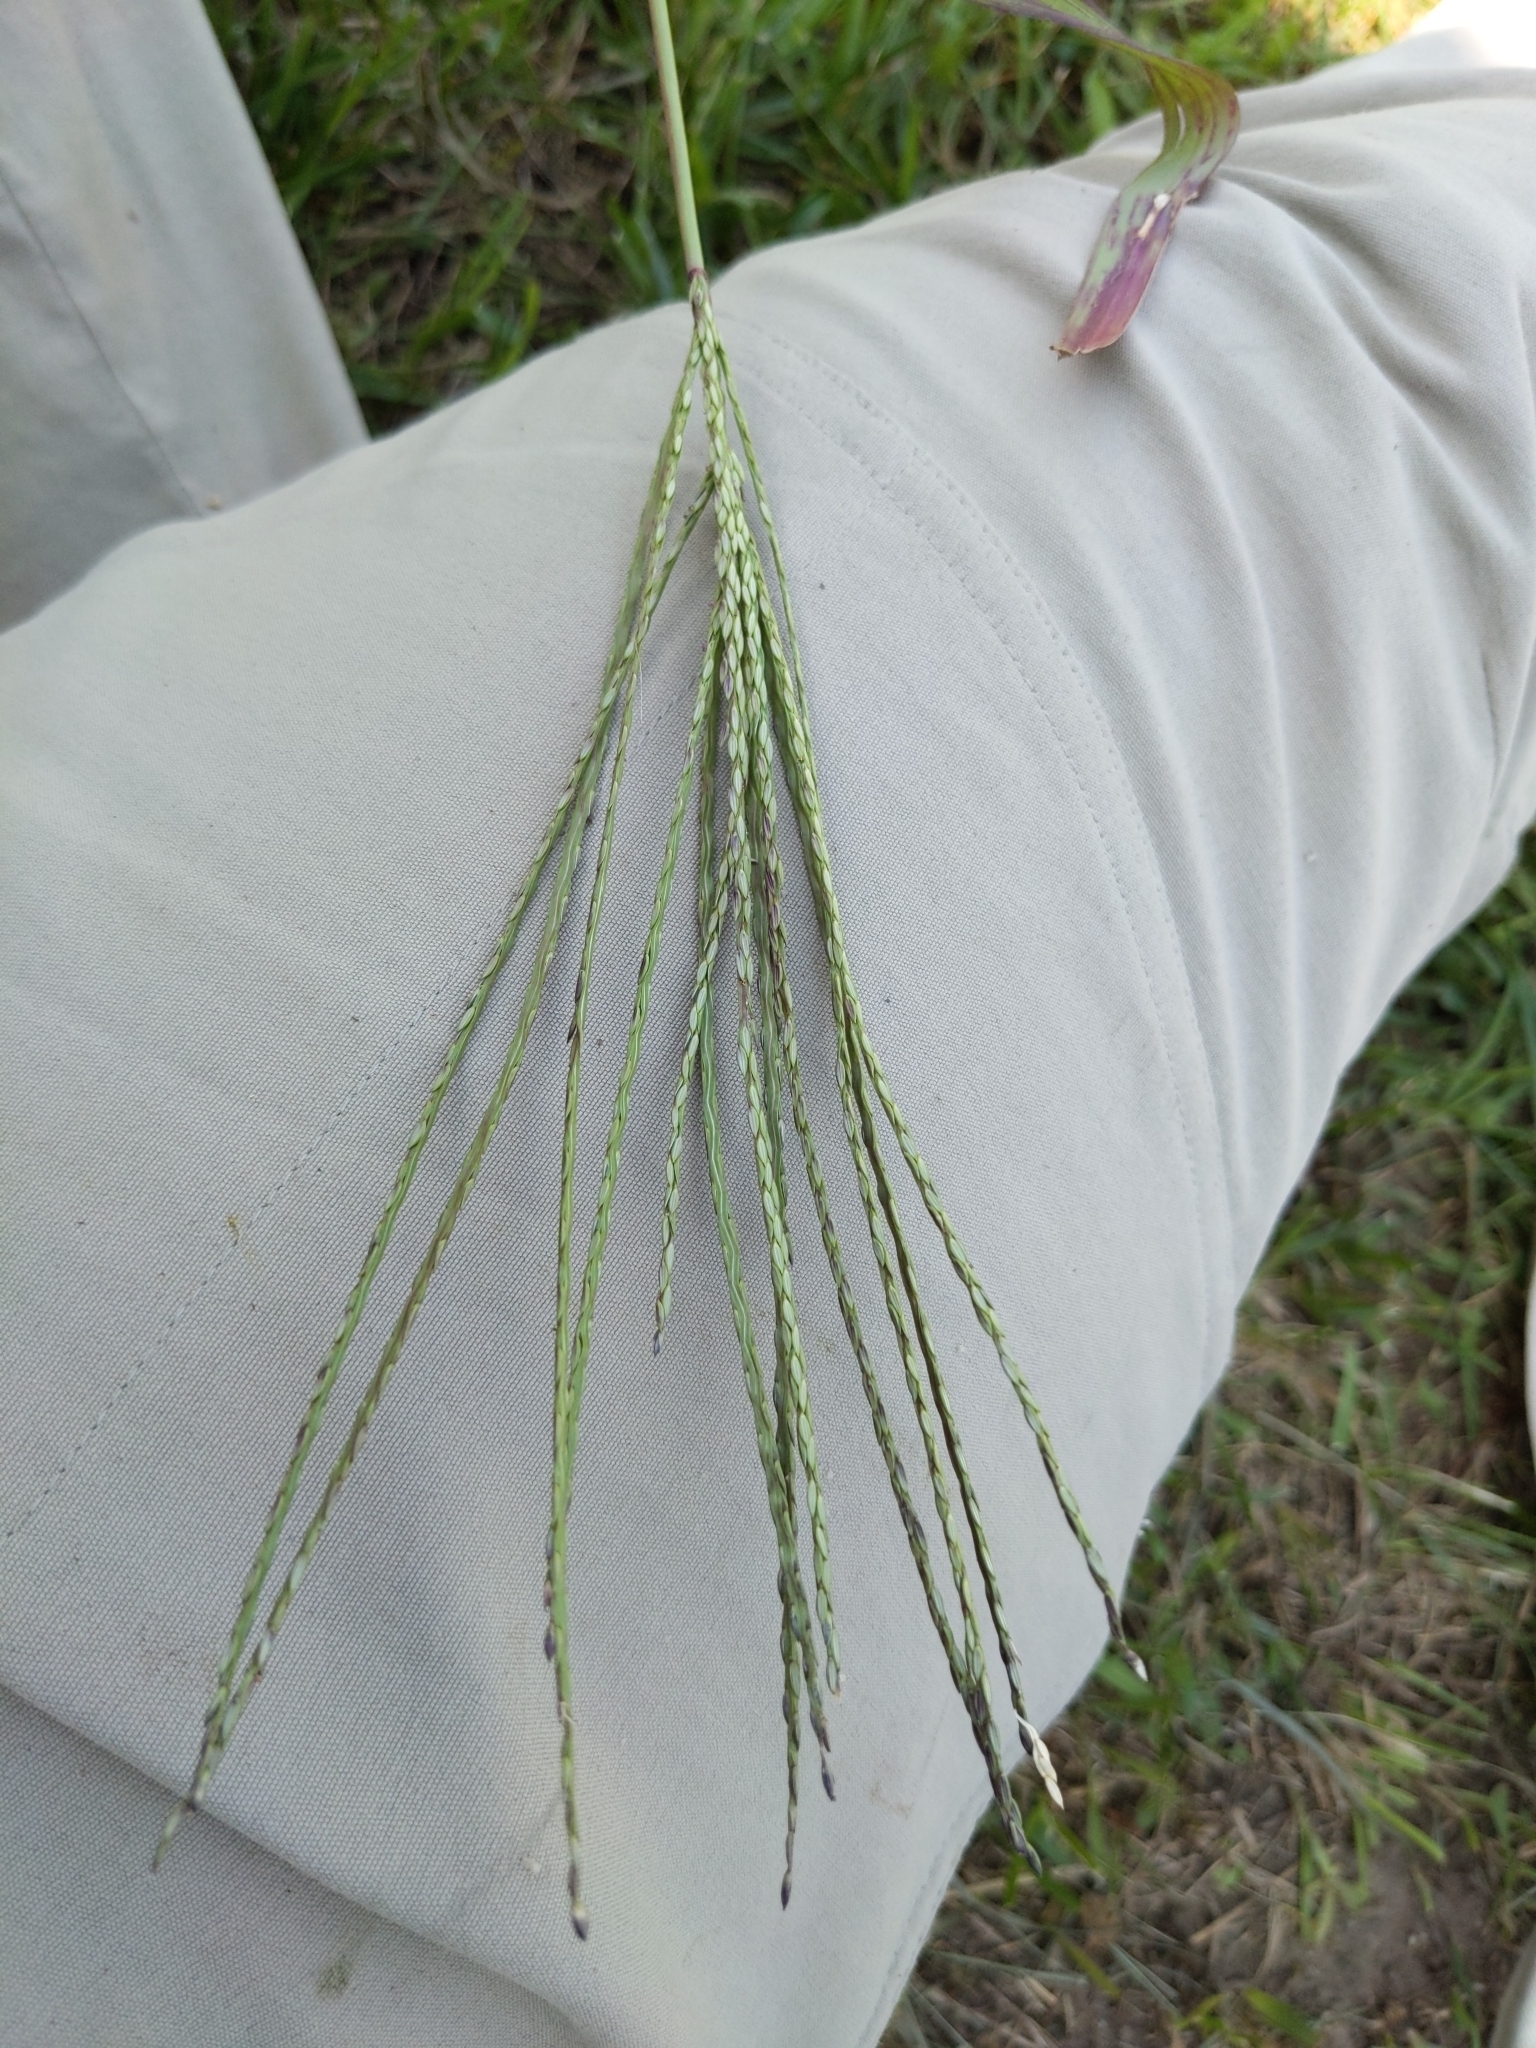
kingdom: Plantae
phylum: Tracheophyta
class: Liliopsida
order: Poales
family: Poaceae
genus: Digitaria
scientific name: Digitaria sanguinalis
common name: Hairy crabgrass
